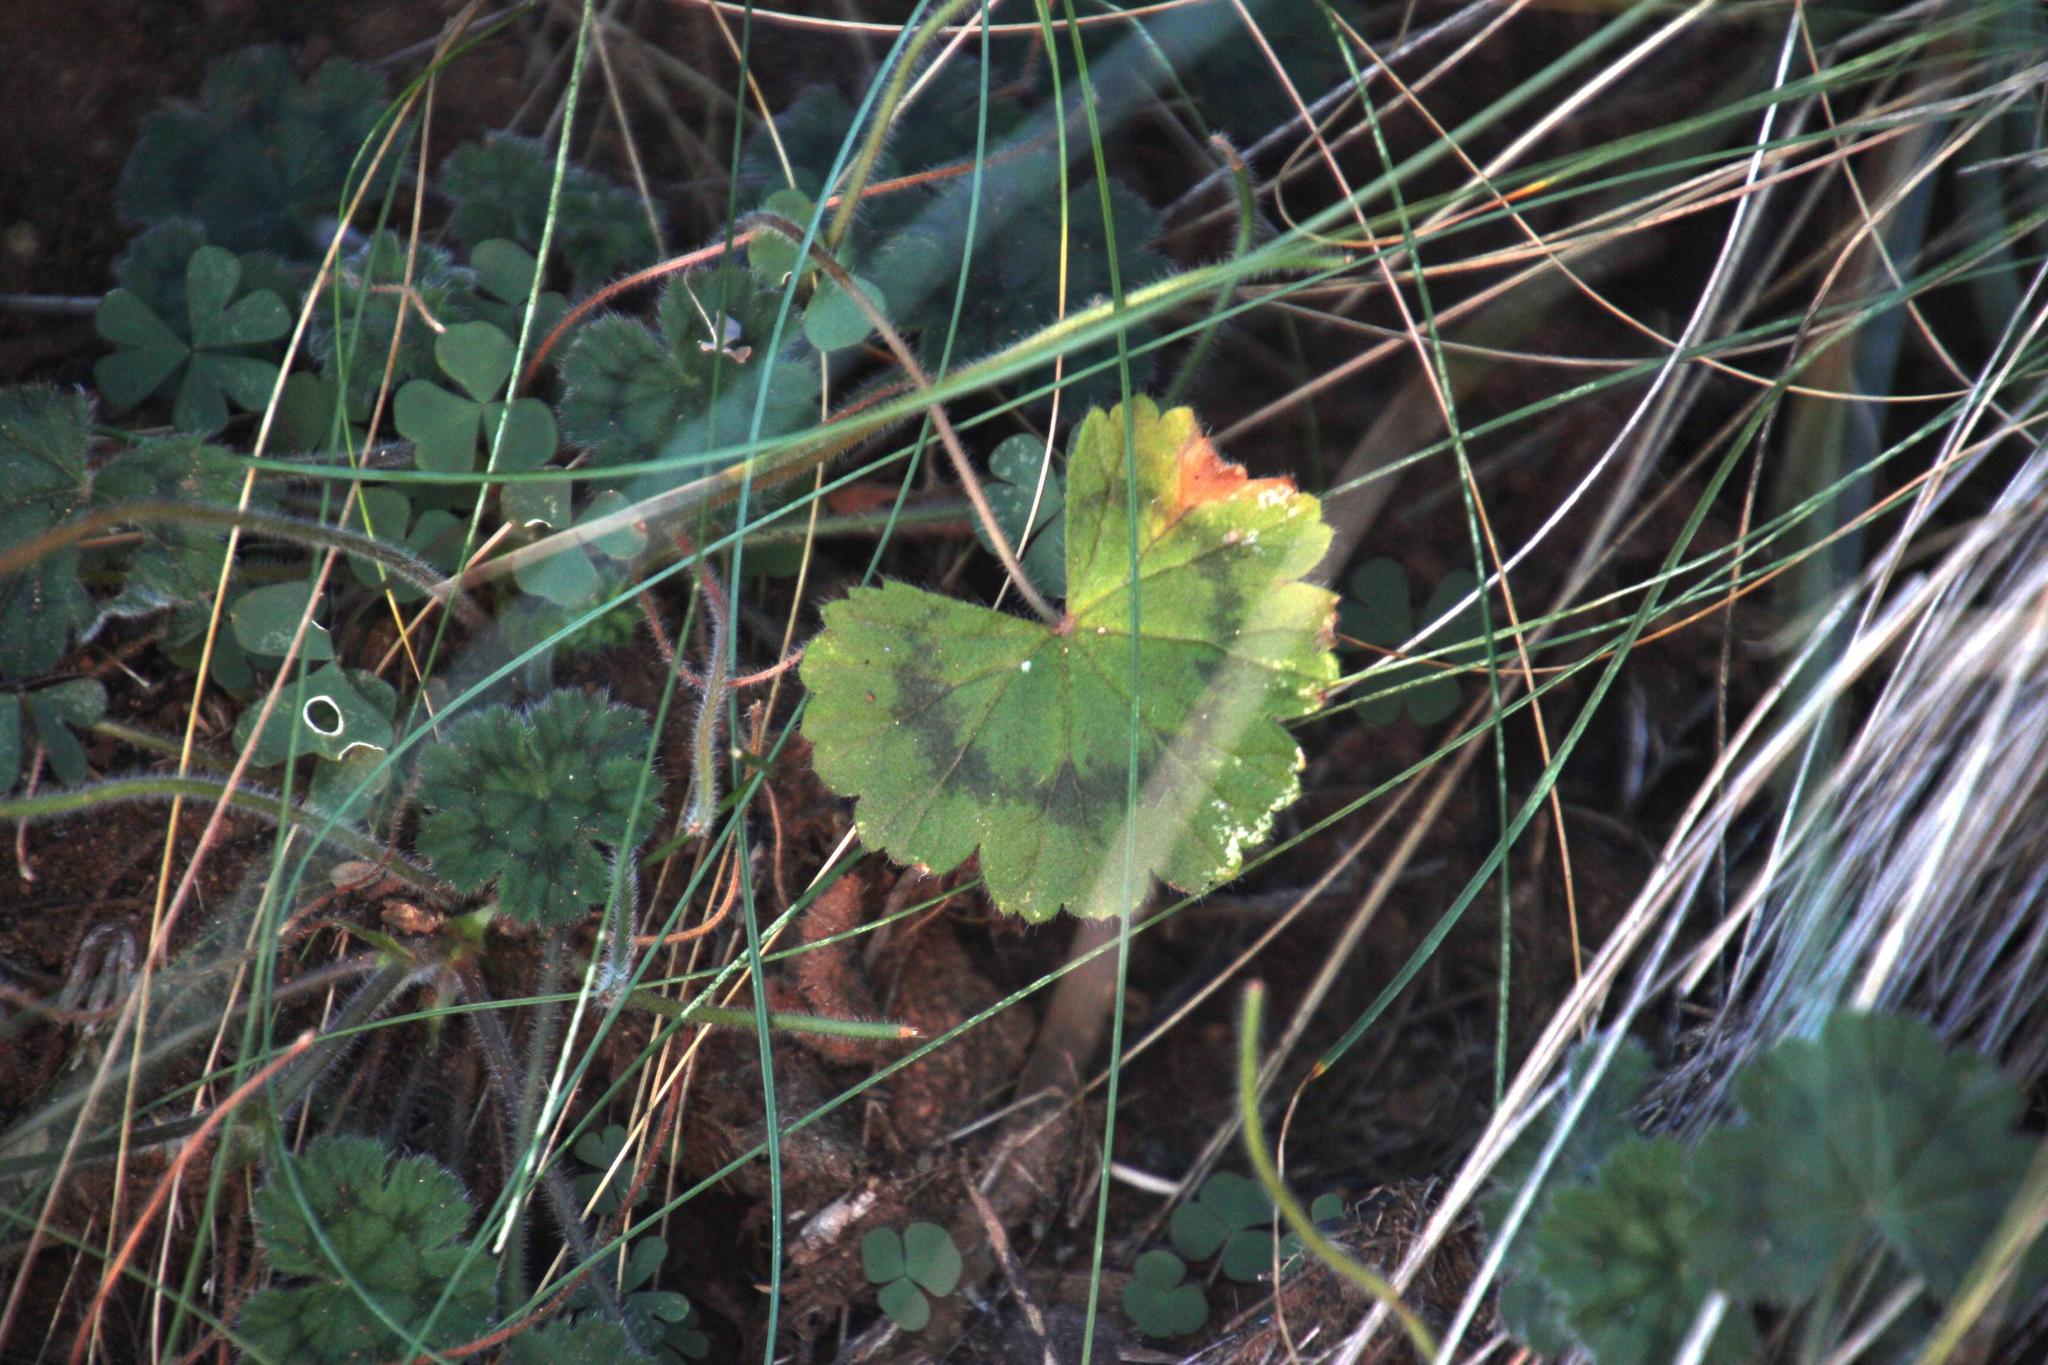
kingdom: Plantae
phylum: Tracheophyta
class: Magnoliopsida
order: Geraniales
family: Geraniaceae
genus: Pelargonium
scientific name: Pelargonium alchemilloides
